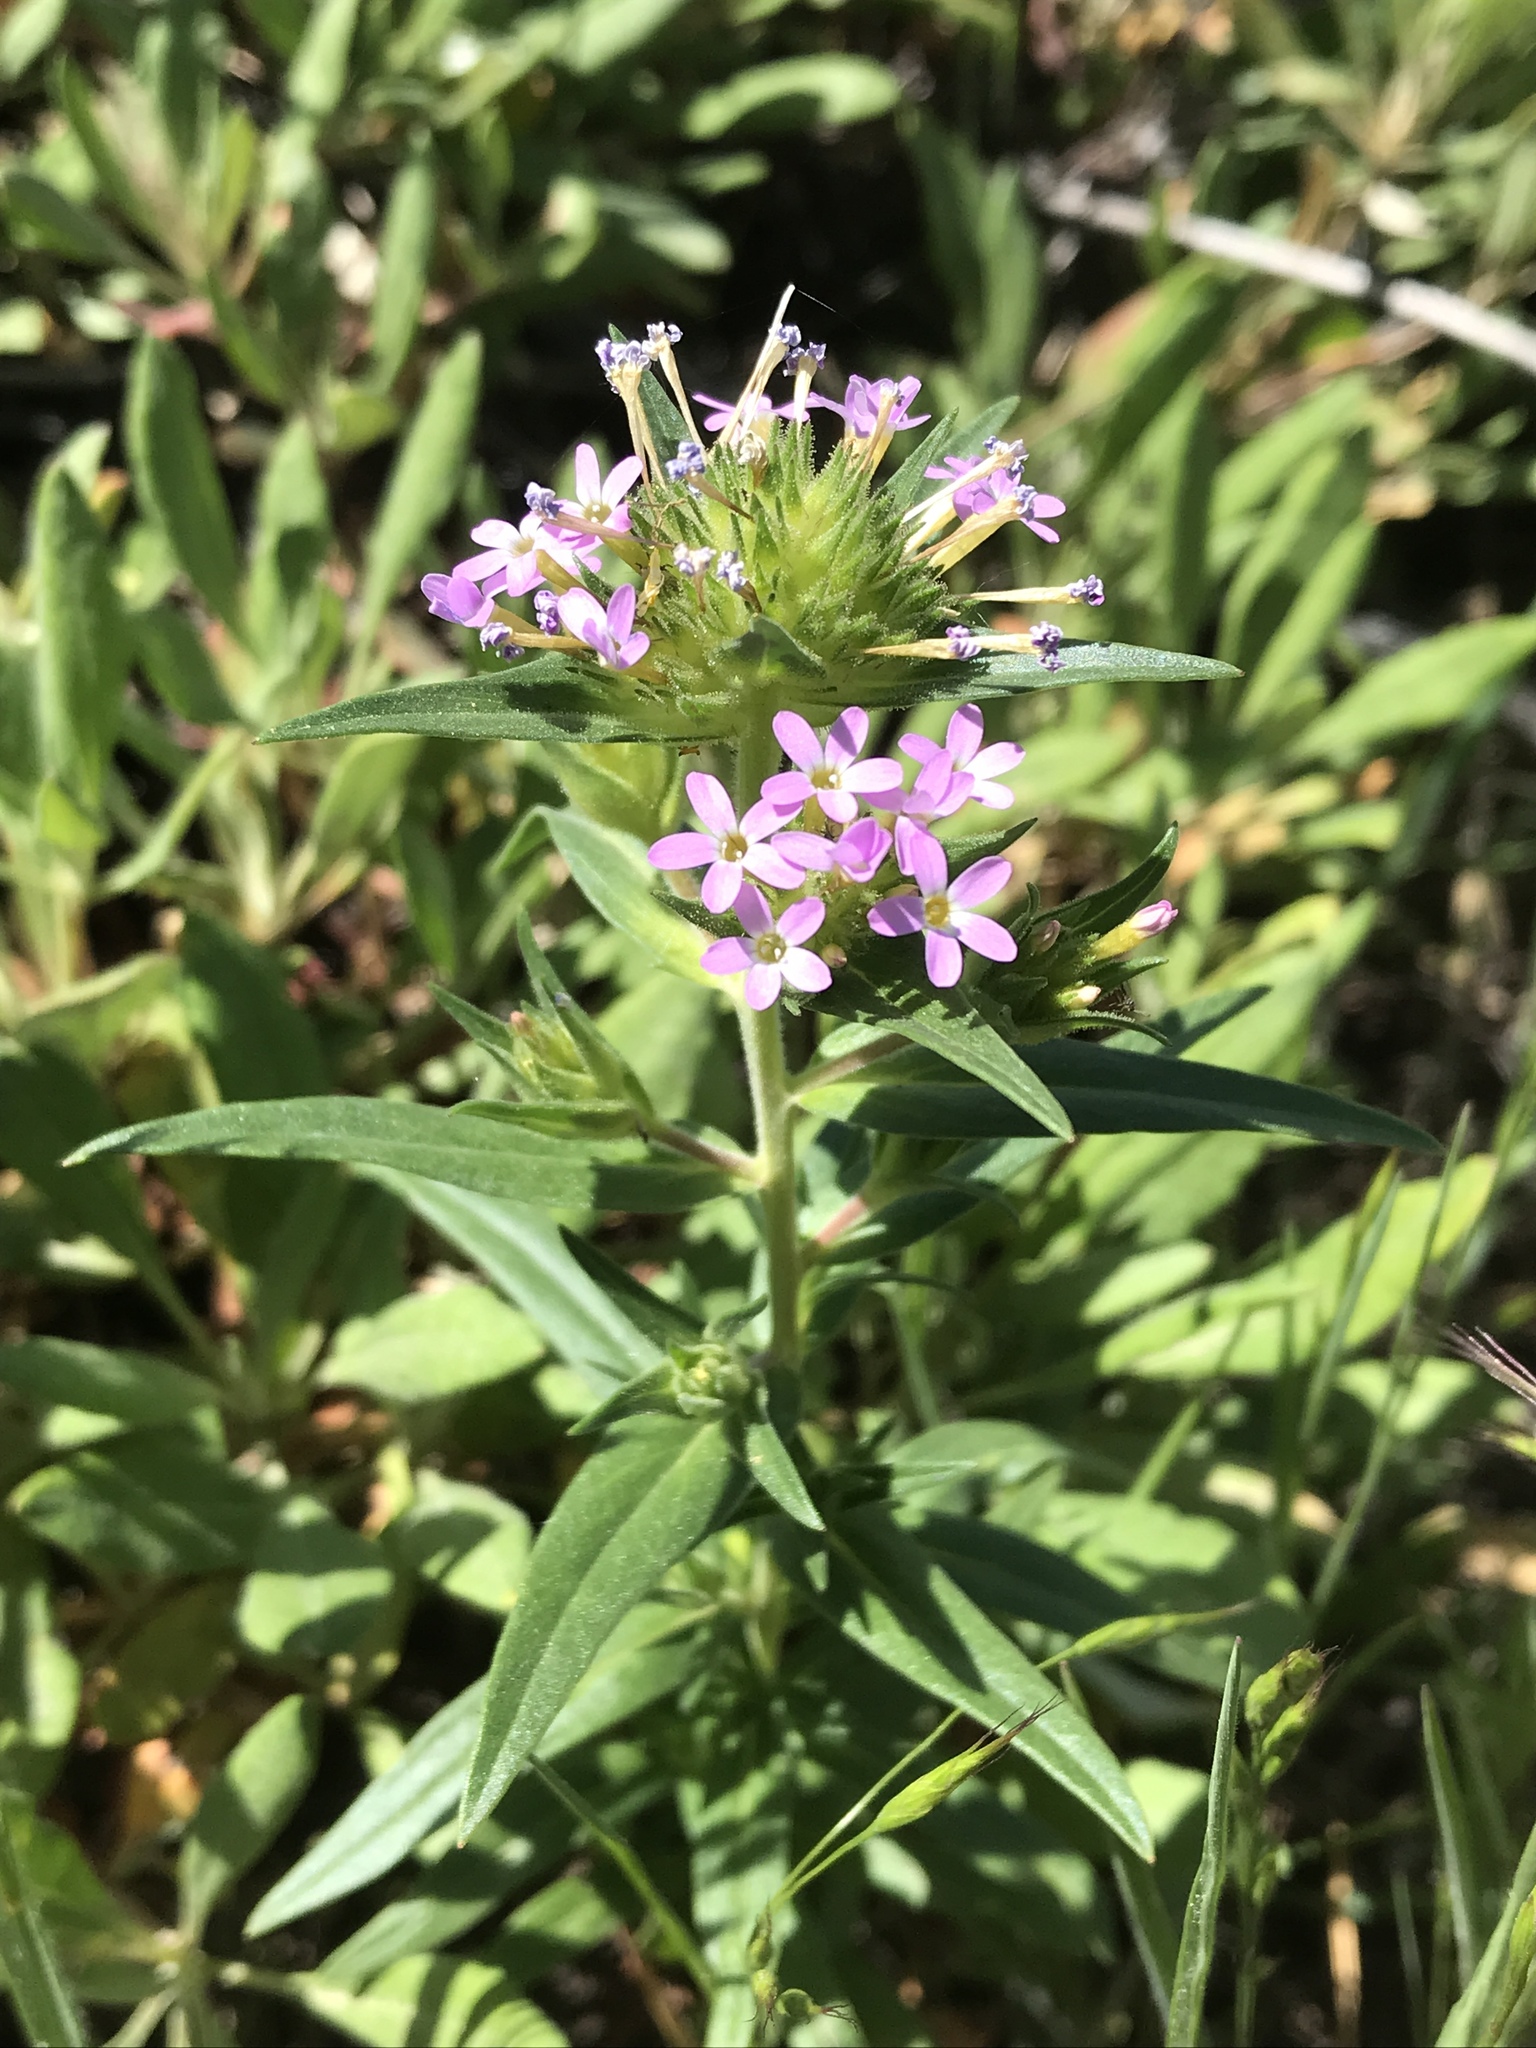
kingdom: Plantae
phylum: Tracheophyta
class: Magnoliopsida
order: Ericales
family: Polemoniaceae
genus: Collomia
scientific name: Collomia linearis
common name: Tiny trumpet
